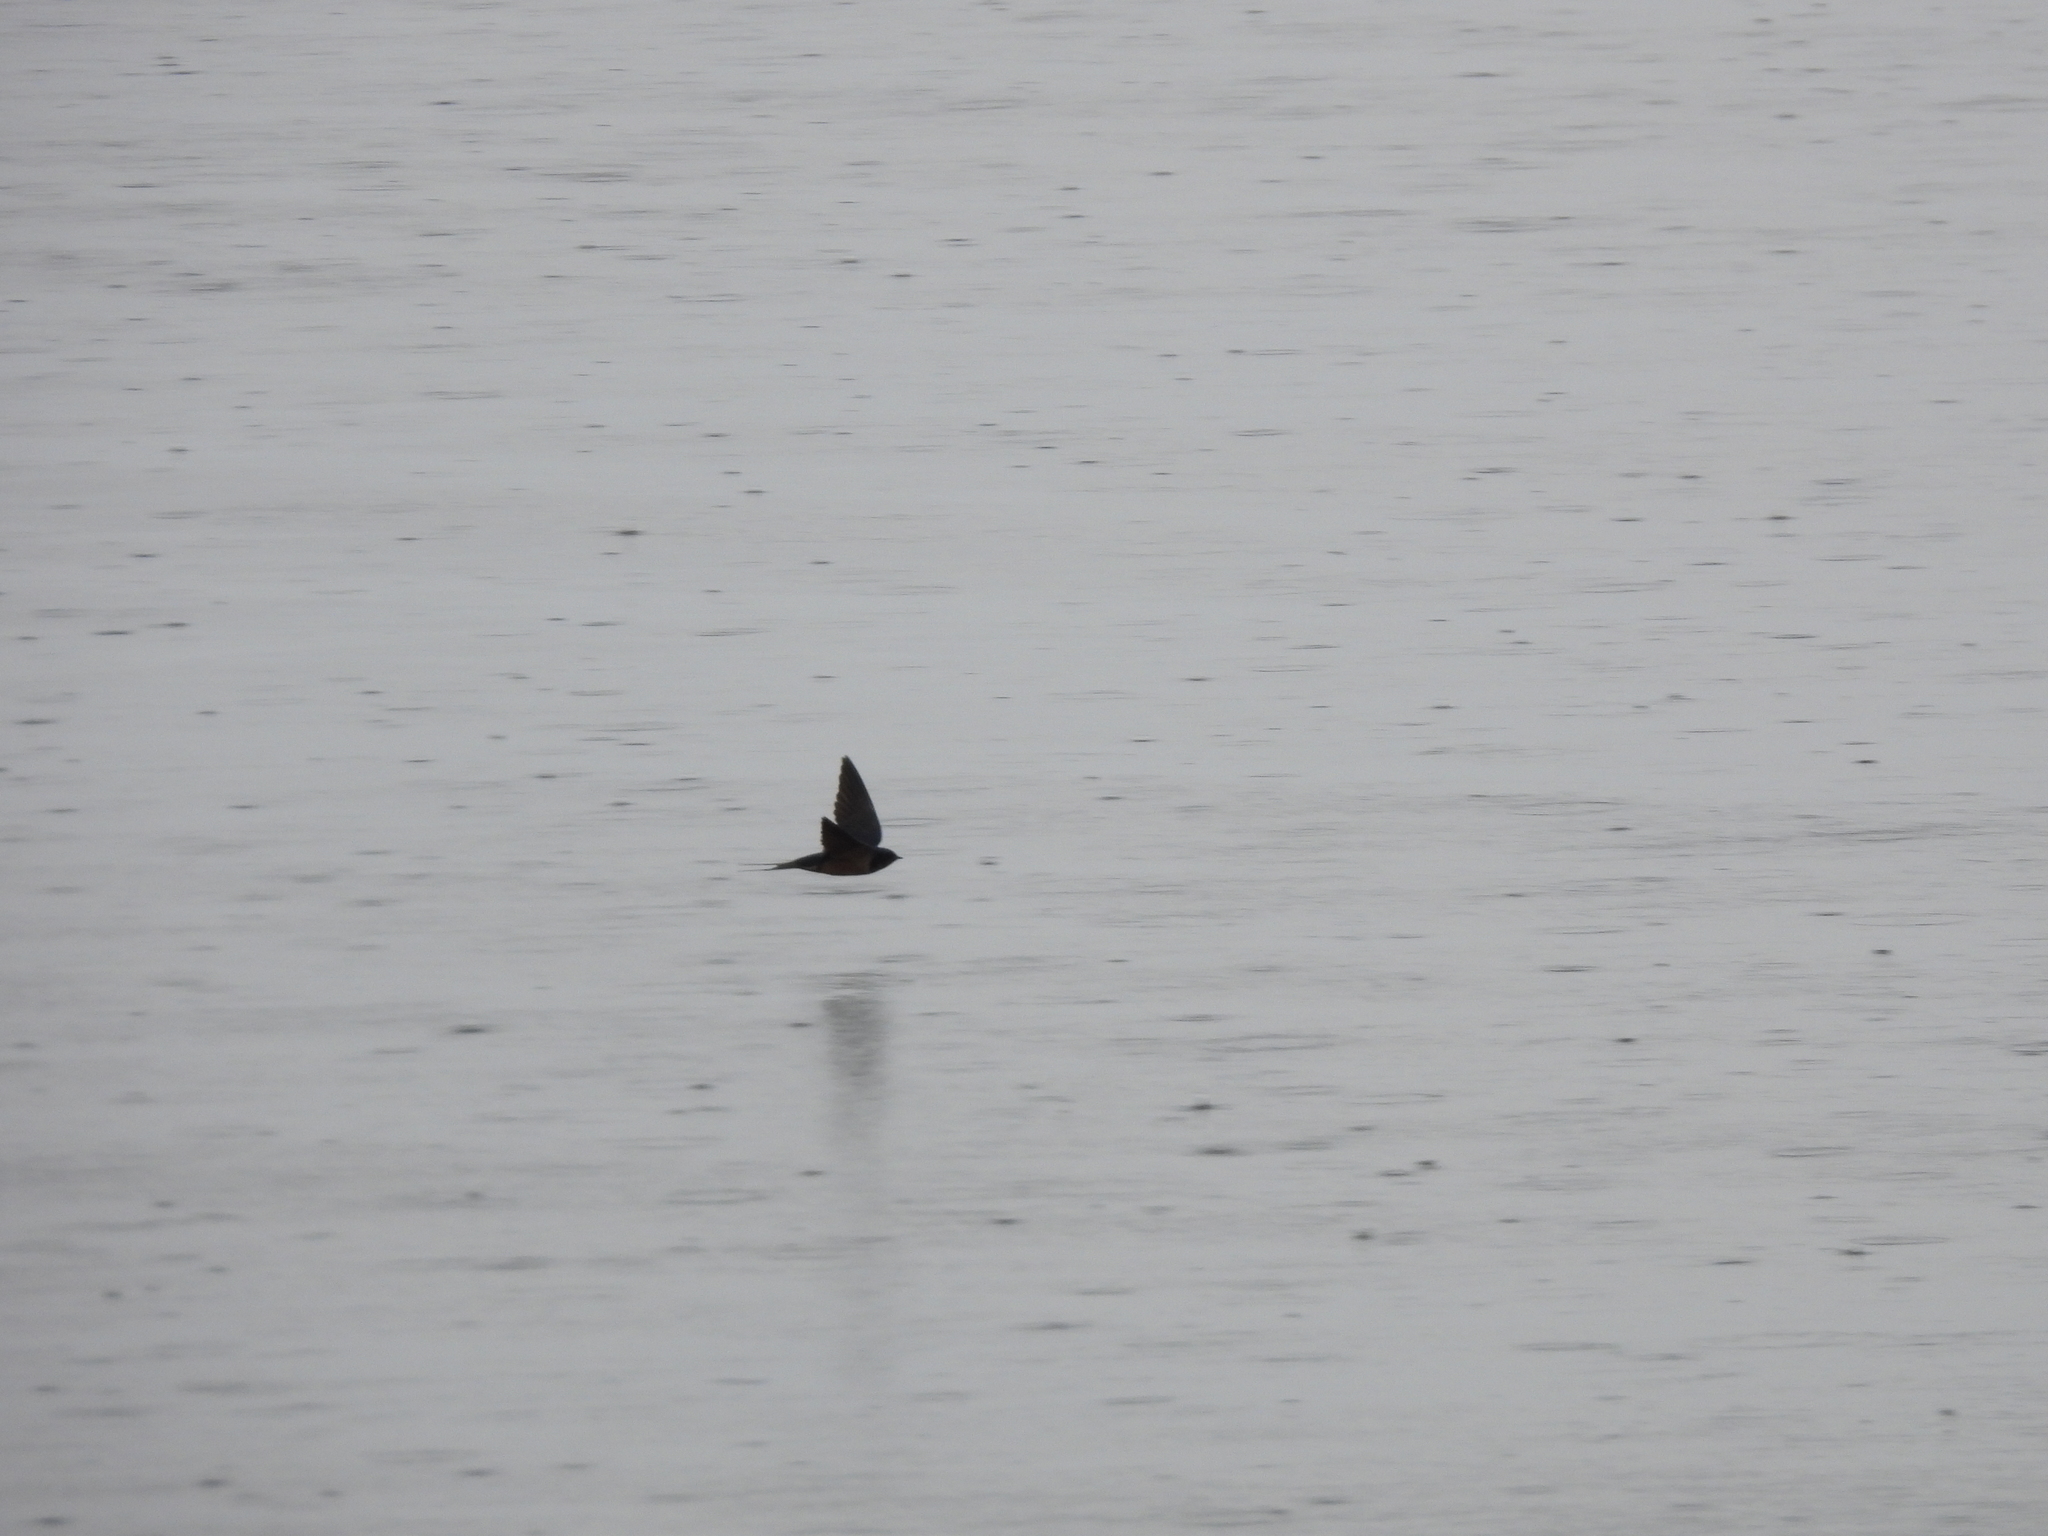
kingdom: Animalia
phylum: Chordata
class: Aves
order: Passeriformes
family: Hirundinidae
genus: Hirundo
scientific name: Hirundo rustica
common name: Barn swallow
